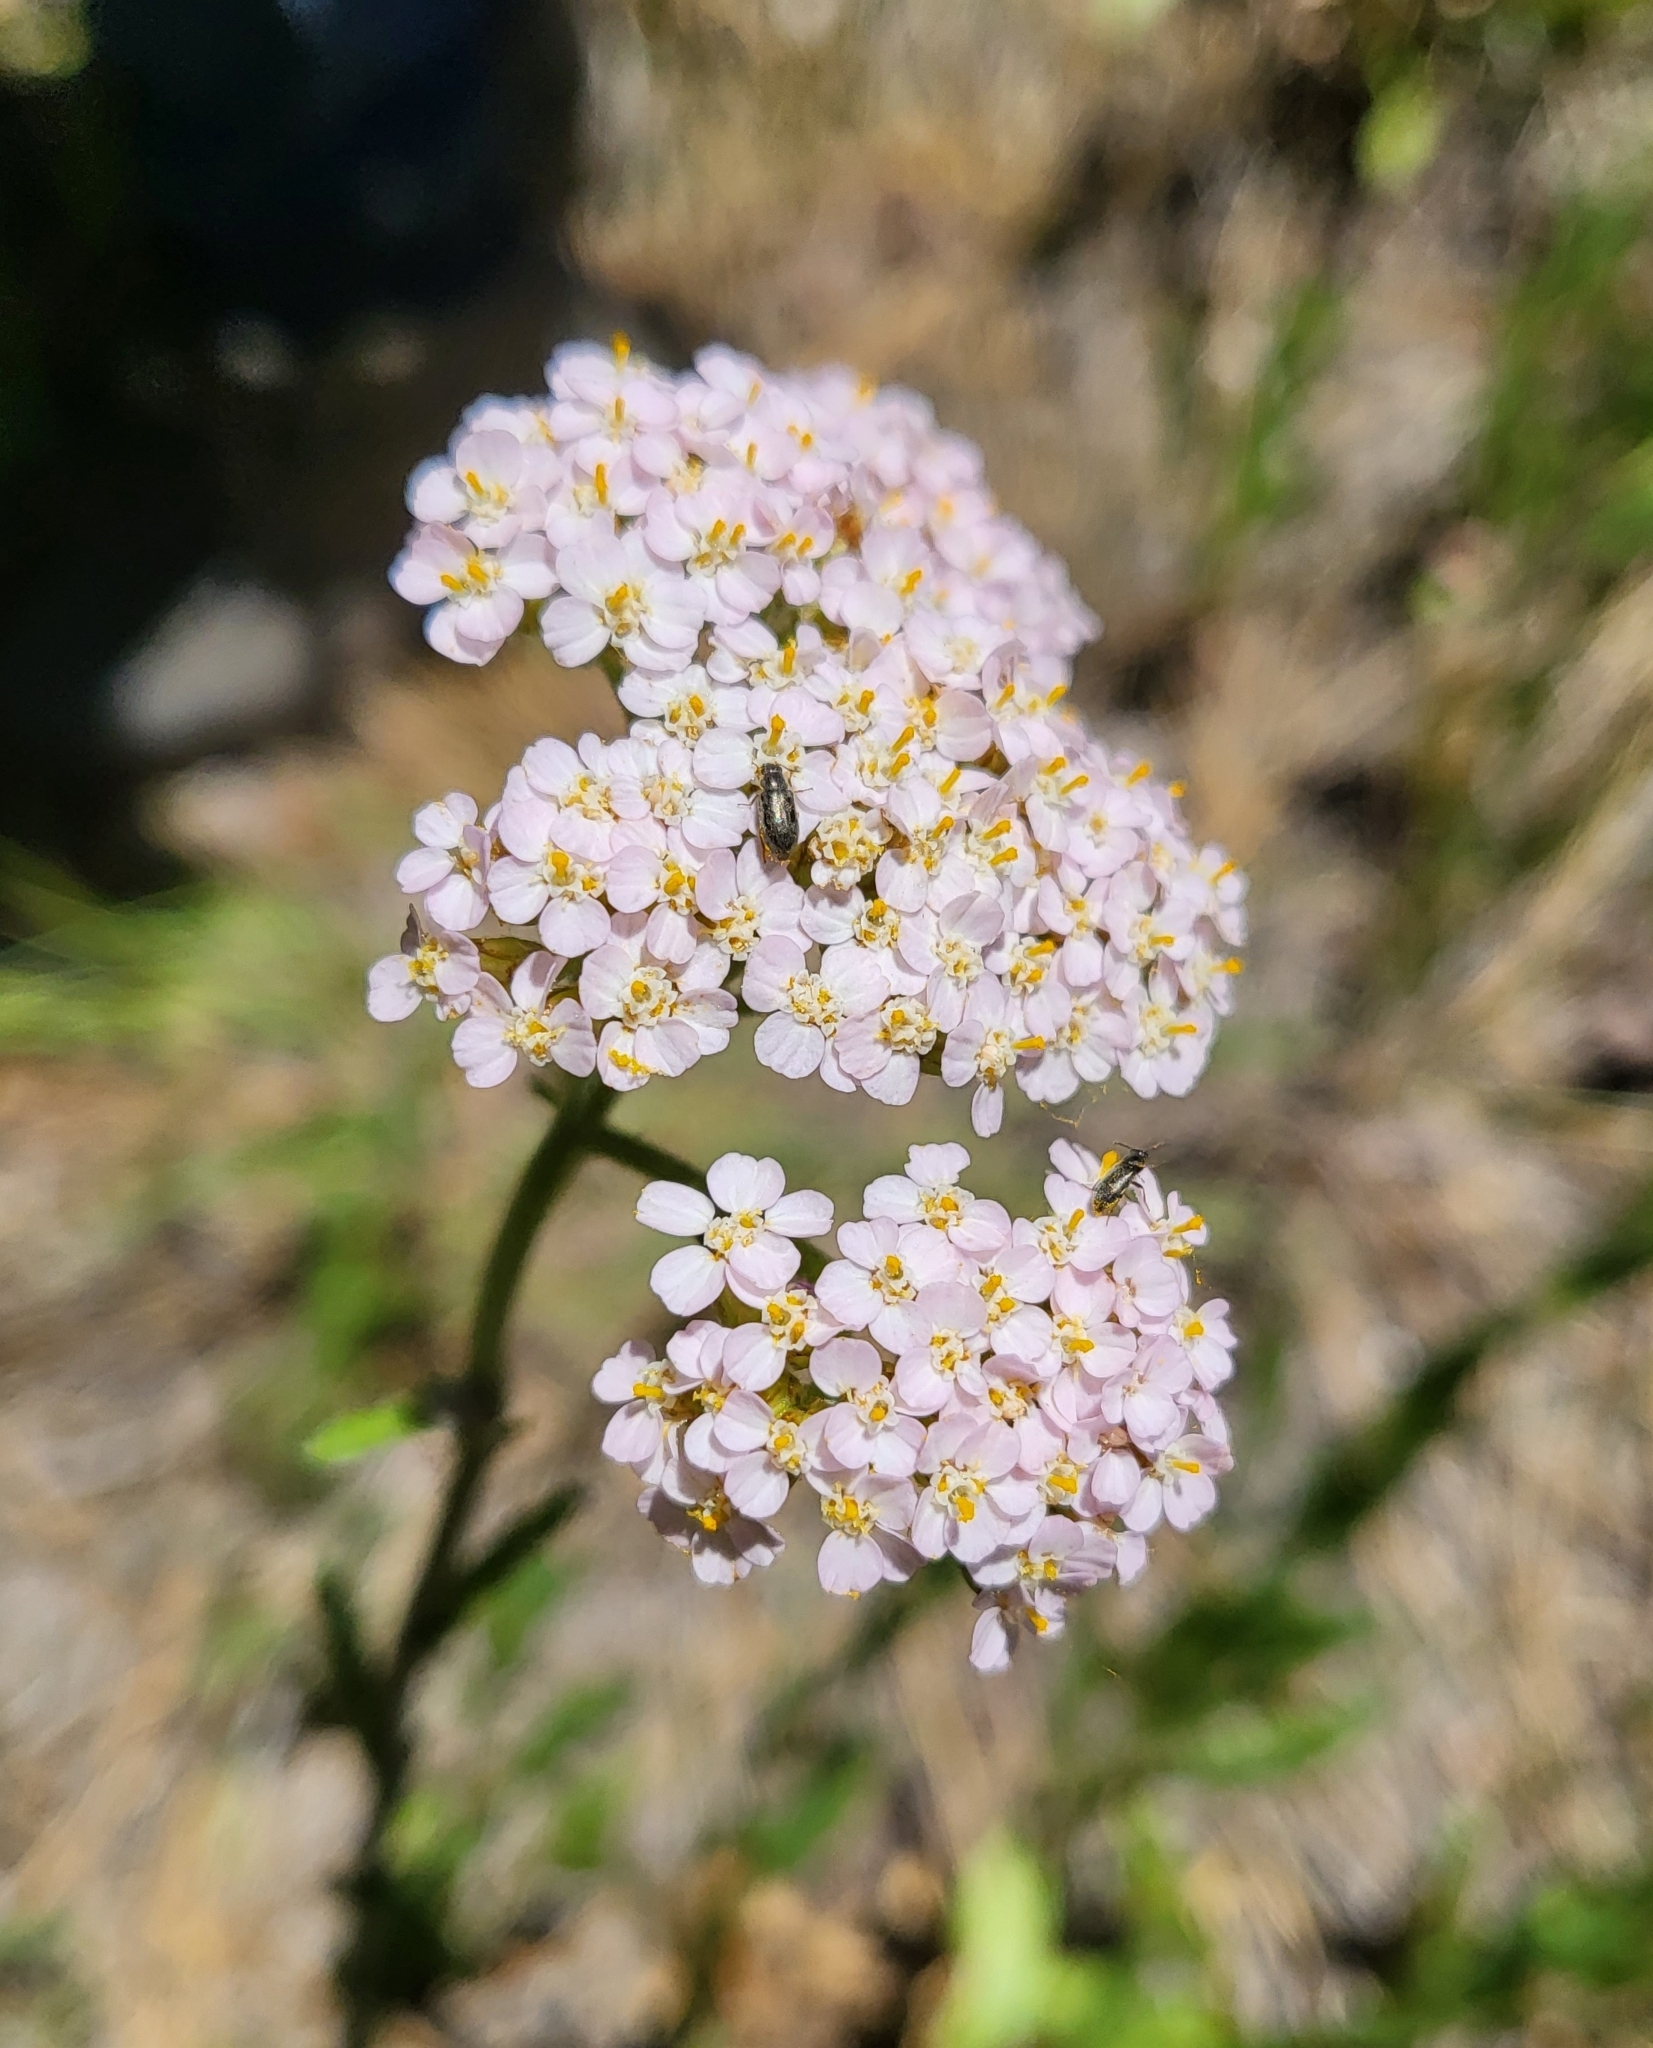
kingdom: Plantae
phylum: Tracheophyta
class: Magnoliopsida
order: Asterales
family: Asteraceae
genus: Achillea
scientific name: Achillea millefolium
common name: Yarrow
